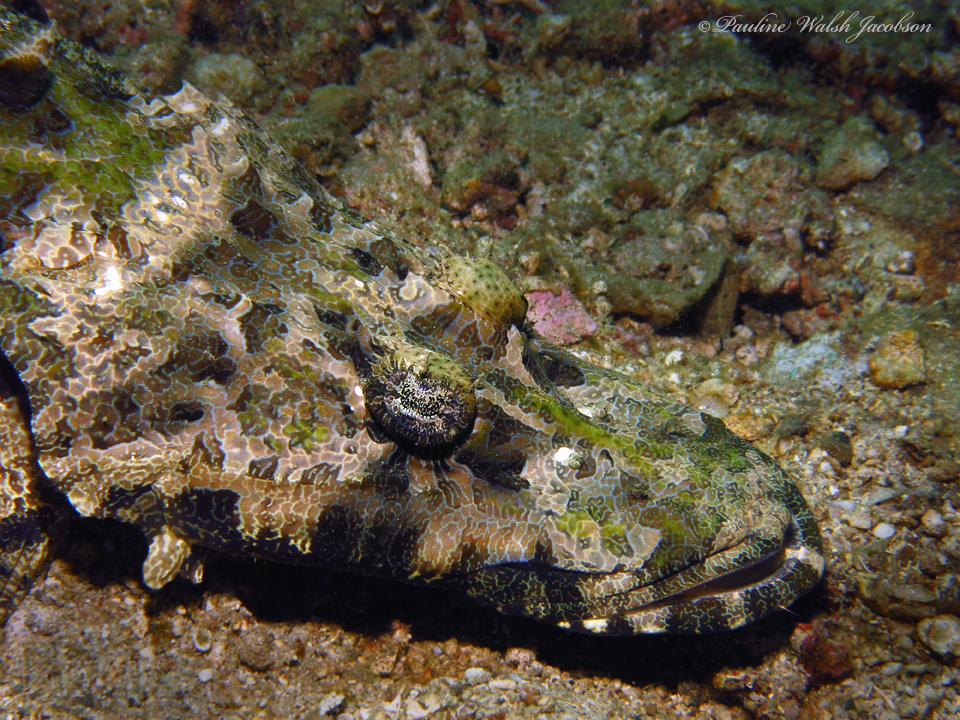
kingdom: Animalia
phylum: Chordata
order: Scorpaeniformes
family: Platycephalidae
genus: Cymbacephalus
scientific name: Cymbacephalus beauforti
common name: Crocodile fish
